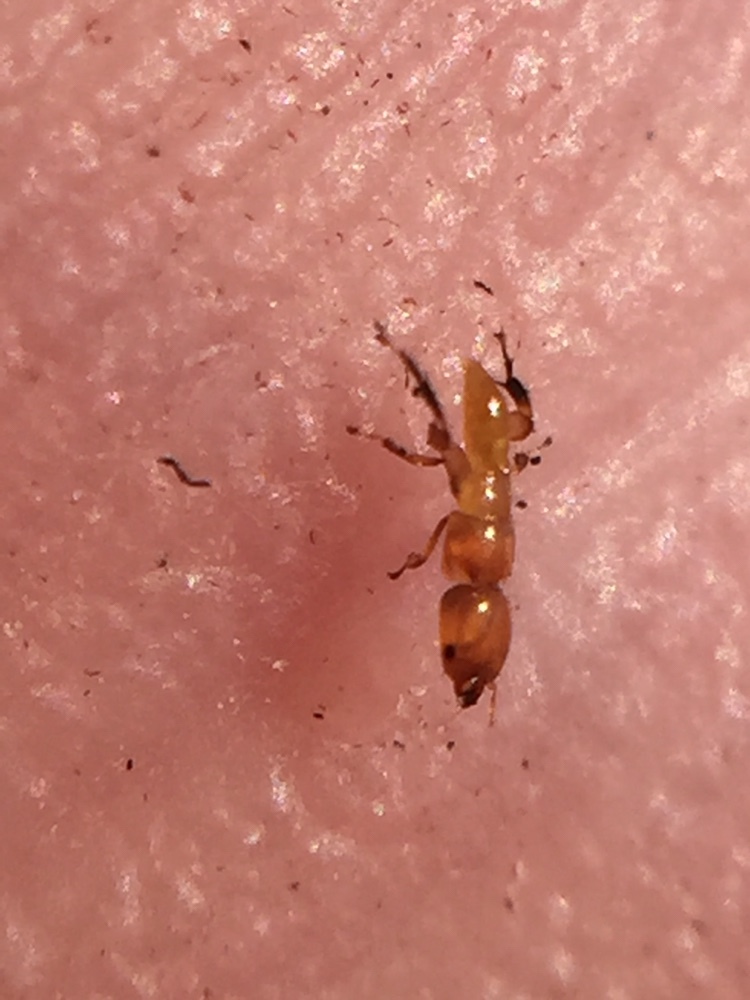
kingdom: Animalia
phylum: Arthropoda
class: Insecta
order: Hymenoptera
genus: Sycoscapter
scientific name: Sycoscapter
